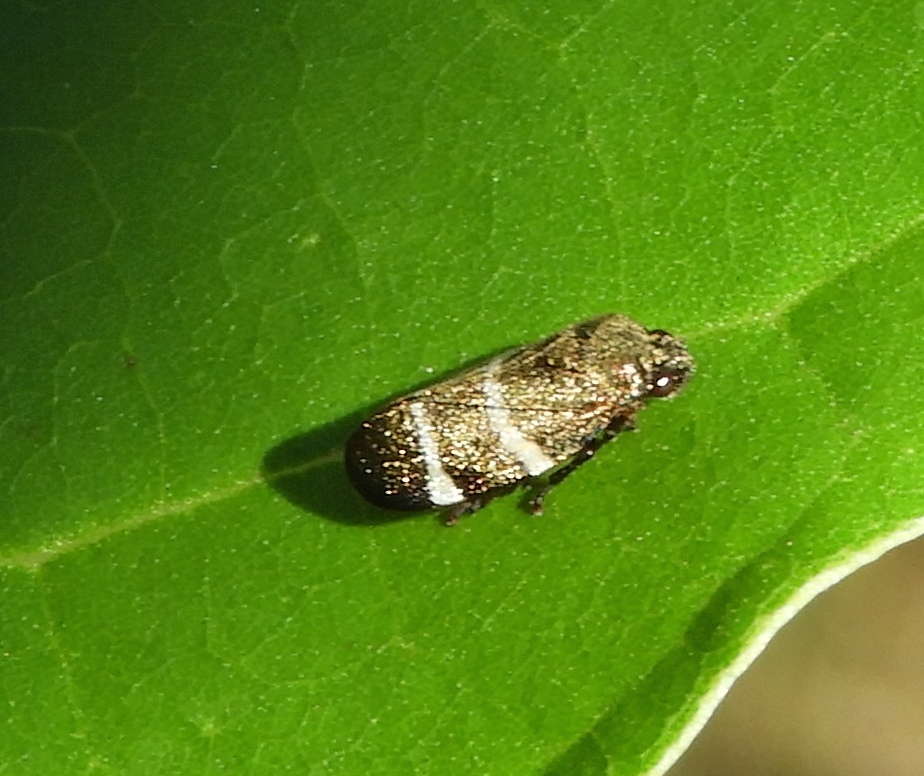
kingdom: Animalia
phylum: Arthropoda
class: Insecta
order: Hemiptera
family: Cercopidae
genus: Aeneolamia
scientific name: Aeneolamia albofasciata
